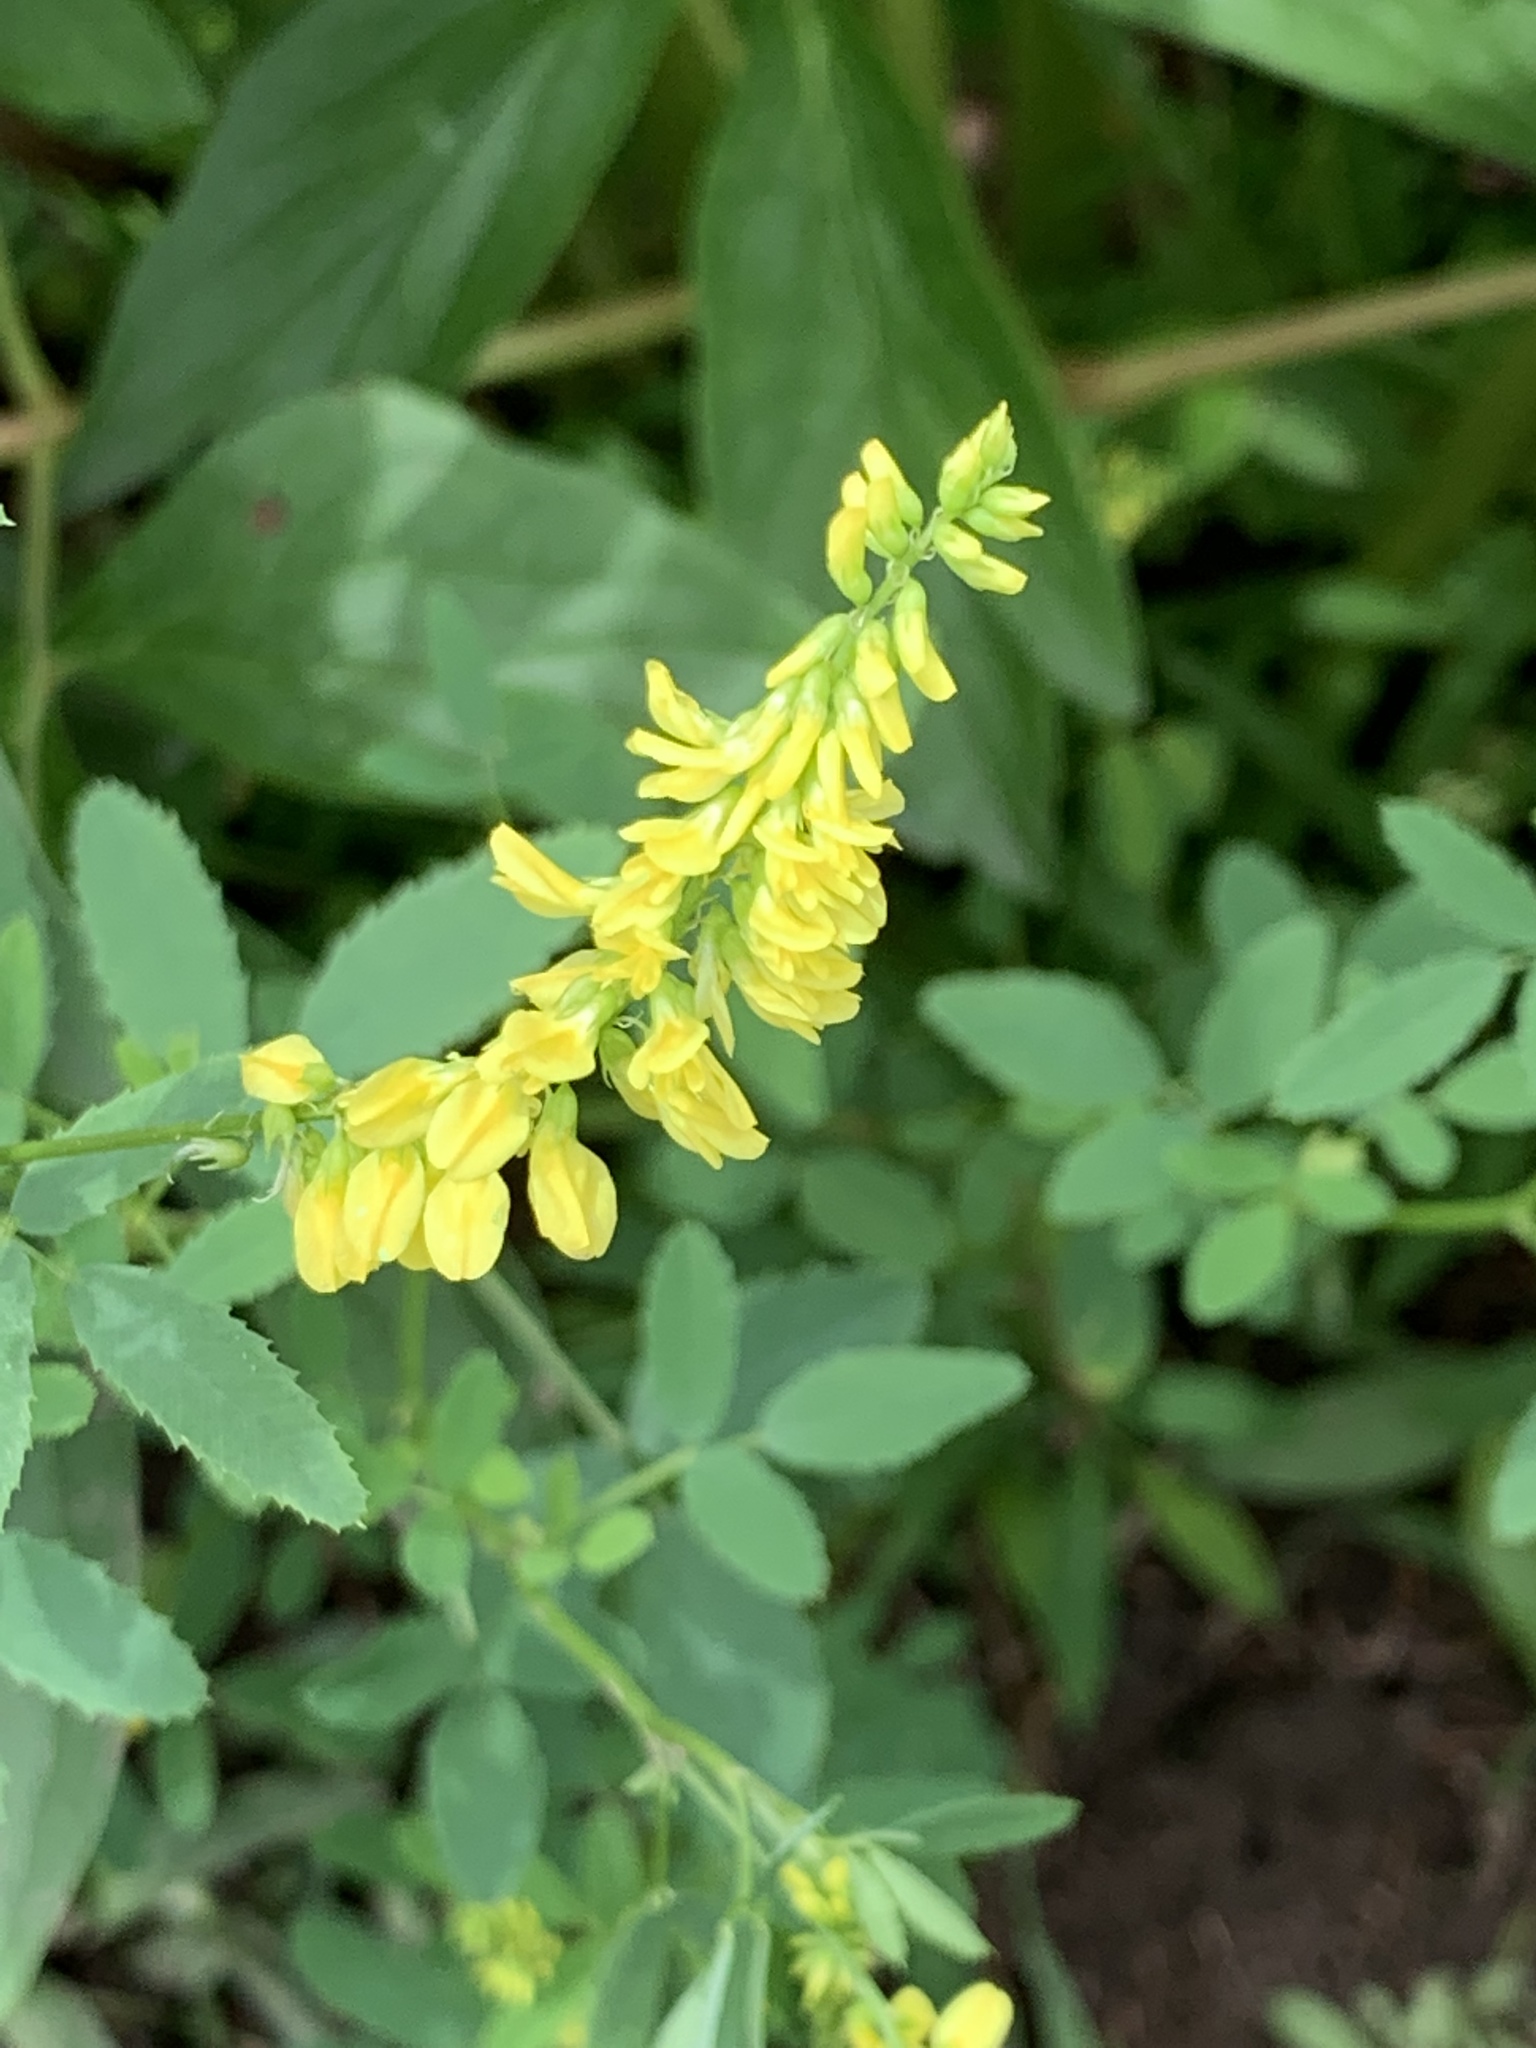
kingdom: Plantae
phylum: Tracheophyta
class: Magnoliopsida
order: Fabales
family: Fabaceae
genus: Melilotus
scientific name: Melilotus officinalis
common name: Sweetclover
